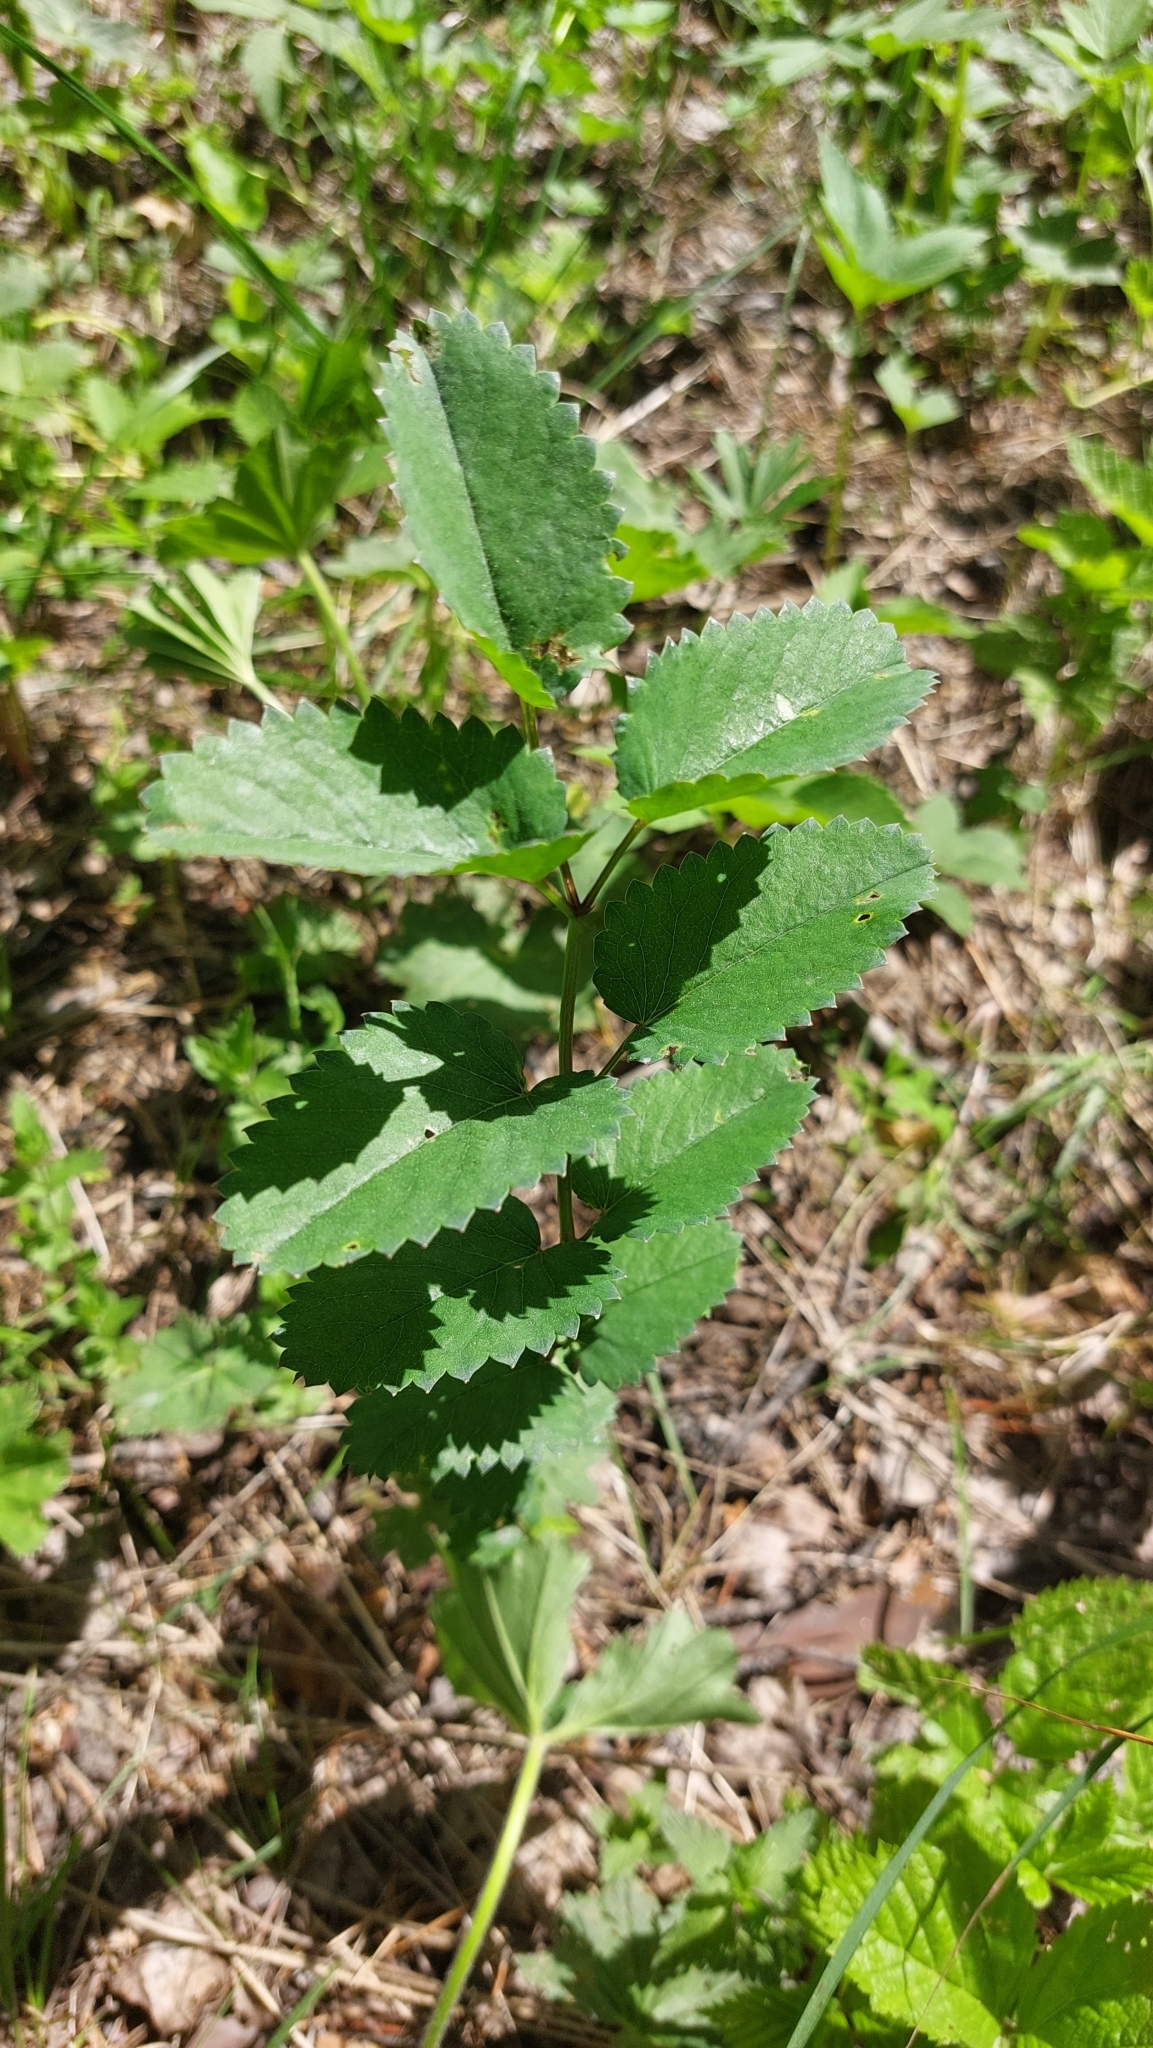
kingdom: Plantae
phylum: Tracheophyta
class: Magnoliopsida
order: Rosales
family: Rosaceae
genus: Sanguisorba
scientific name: Sanguisorba officinalis
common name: Great burnet
